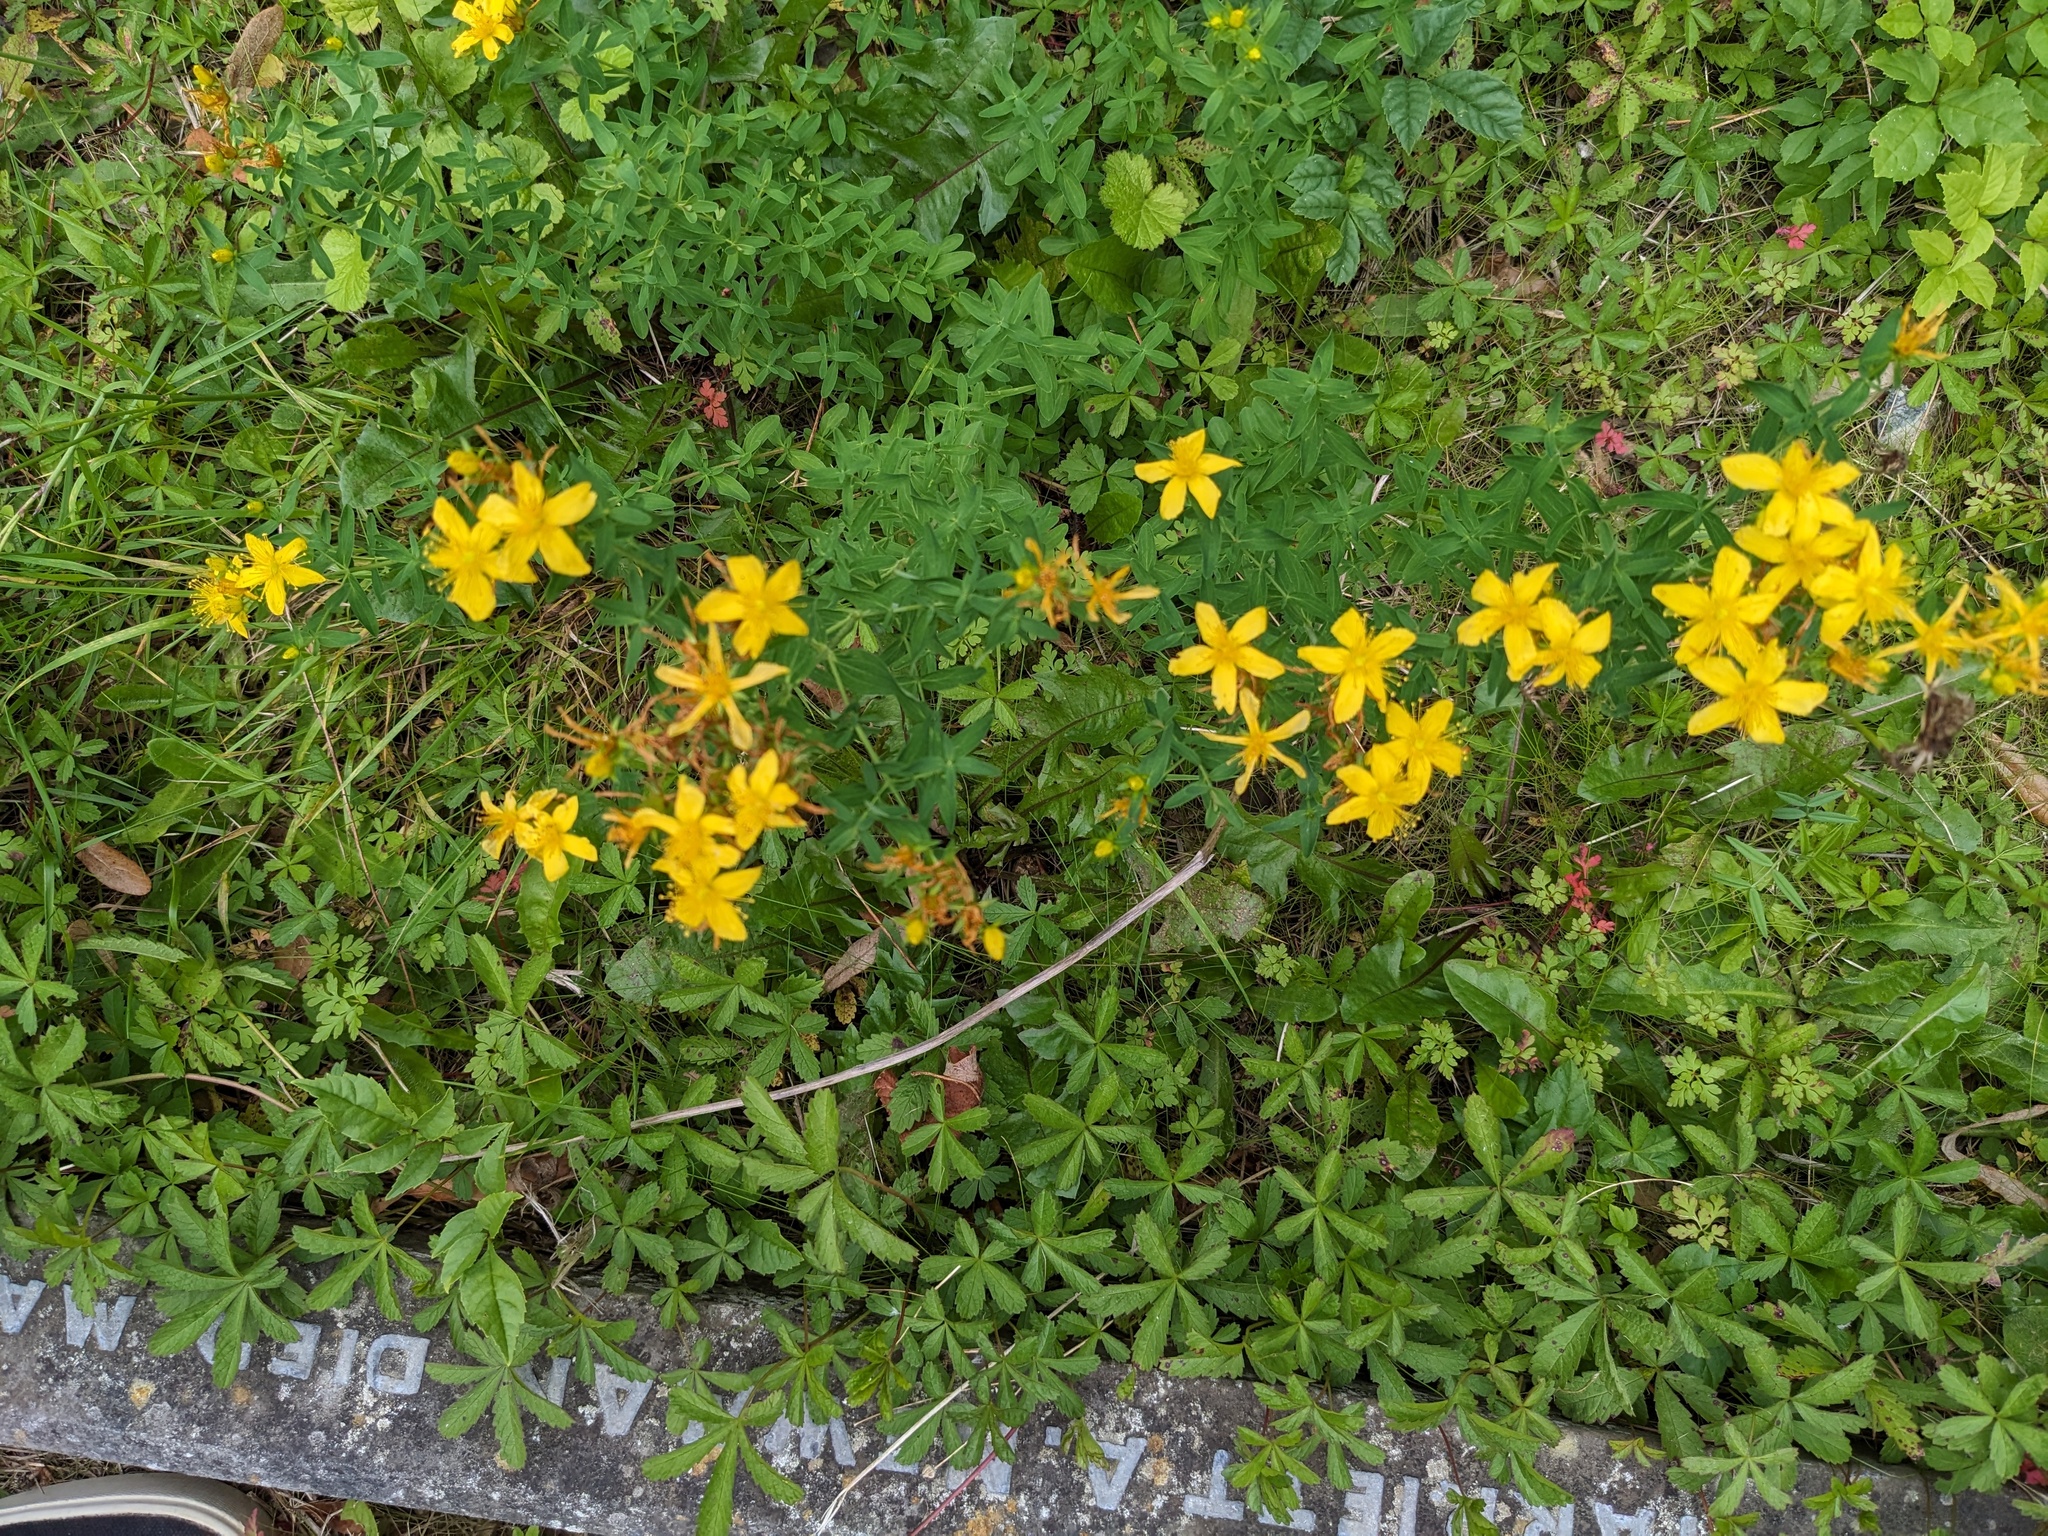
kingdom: Plantae
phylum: Tracheophyta
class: Magnoliopsida
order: Malpighiales
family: Hypericaceae
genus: Hypericum
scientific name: Hypericum perforatum
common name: Common st. johnswort
